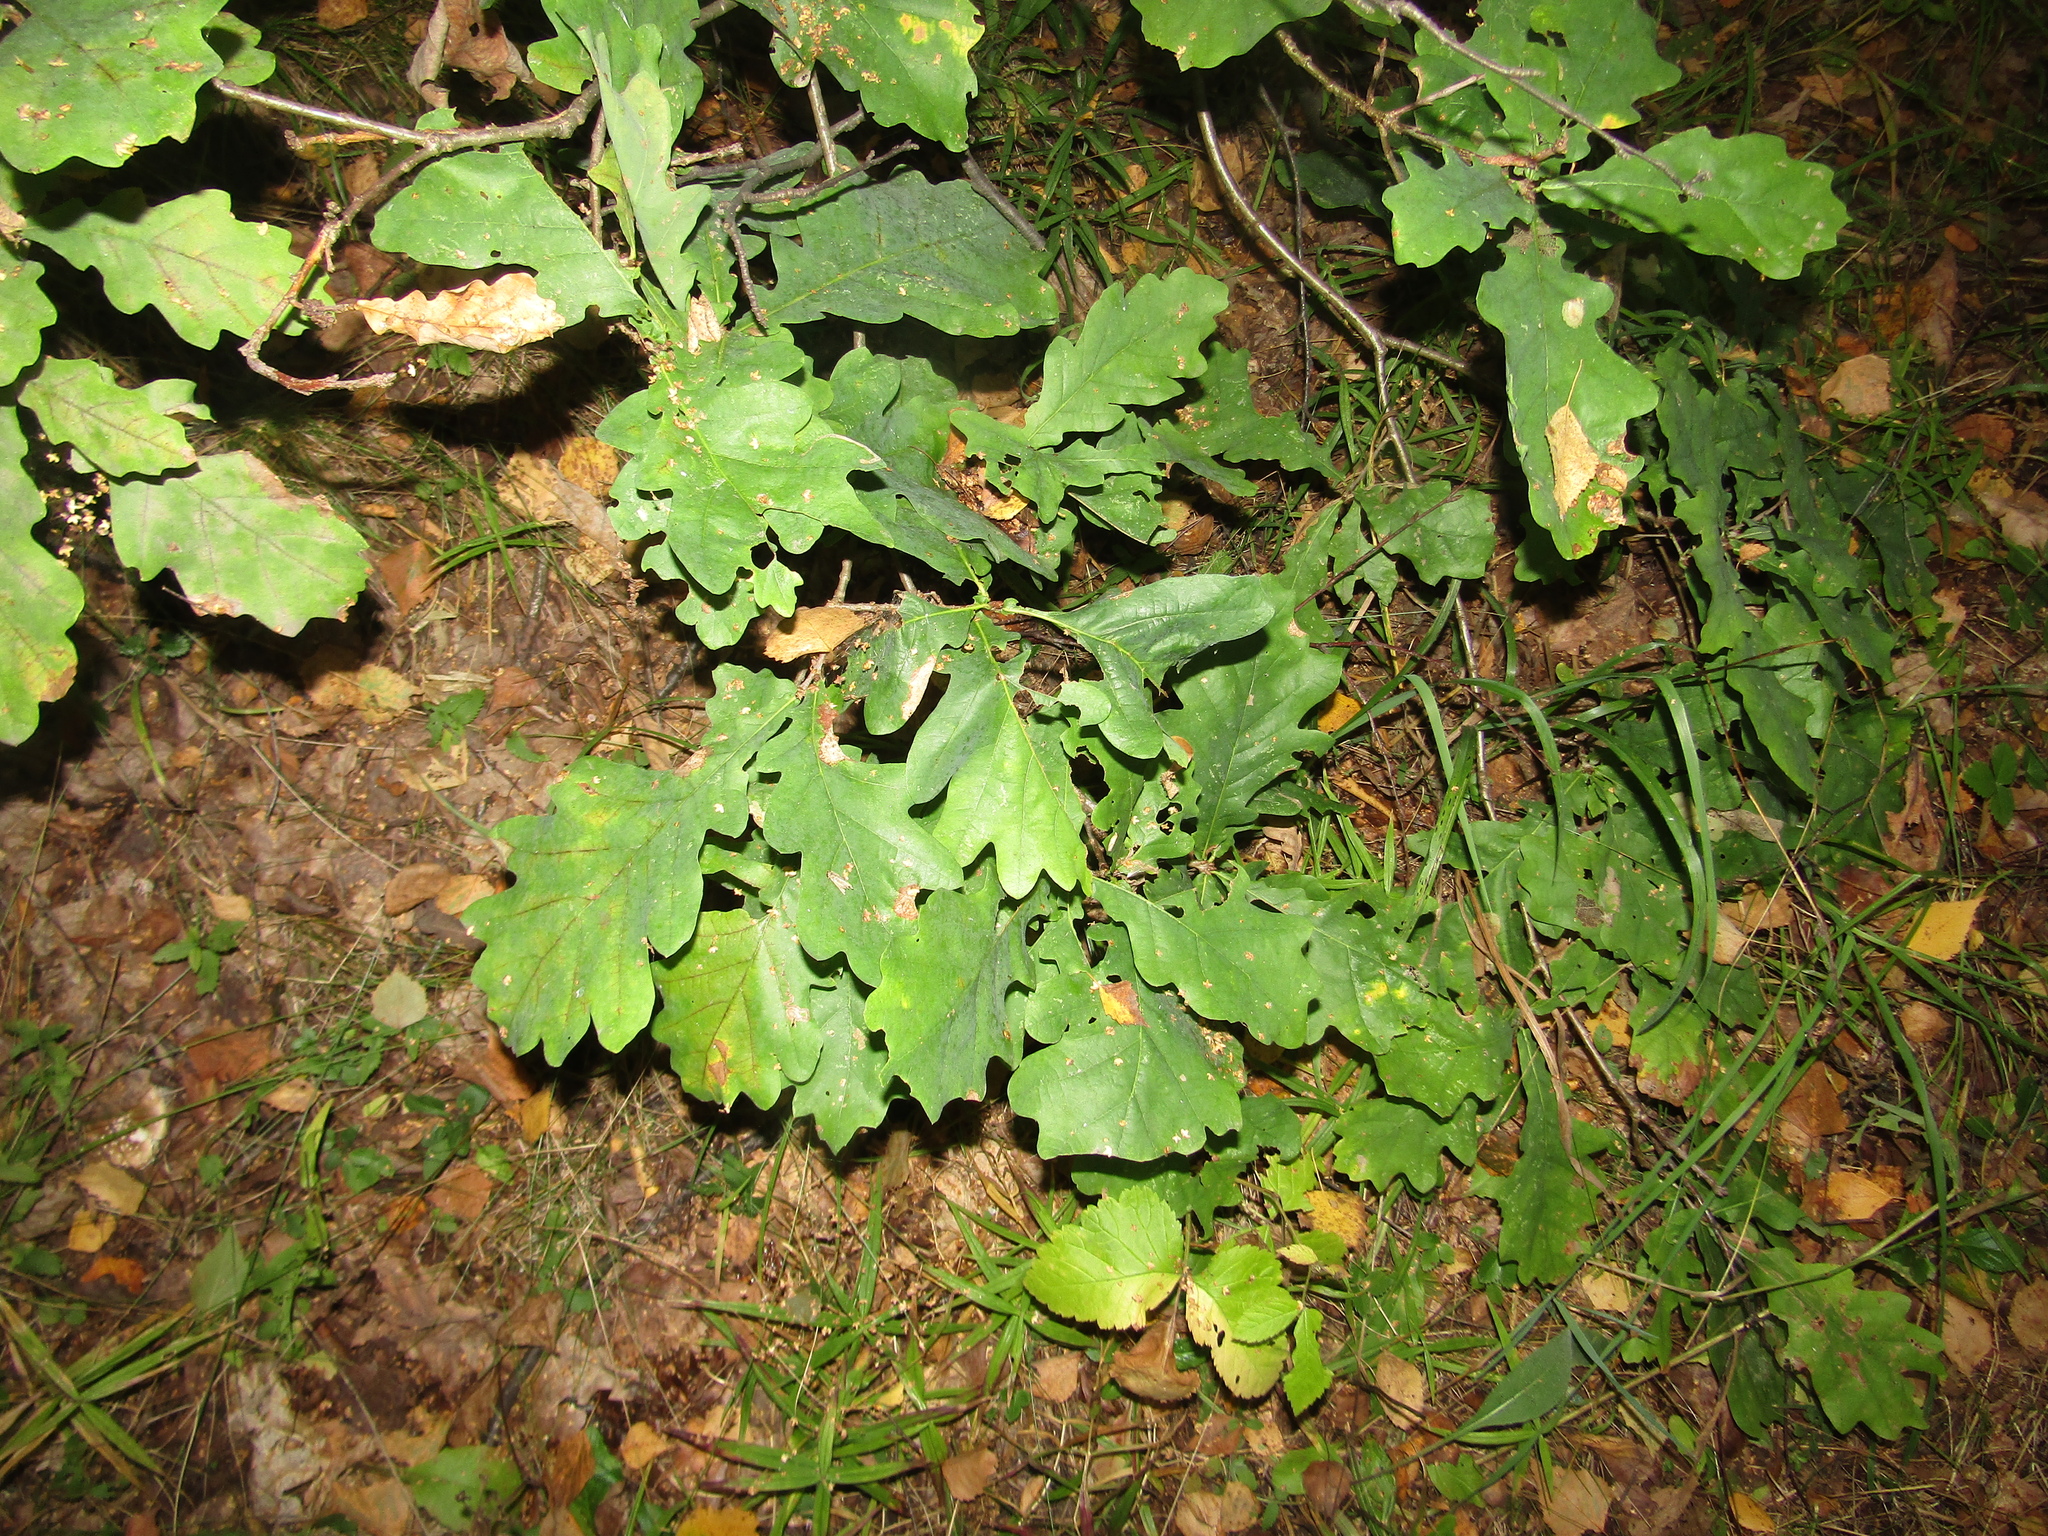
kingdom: Plantae
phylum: Tracheophyta
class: Magnoliopsida
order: Fagales
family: Fagaceae
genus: Quercus
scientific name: Quercus robur
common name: Pedunculate oak
